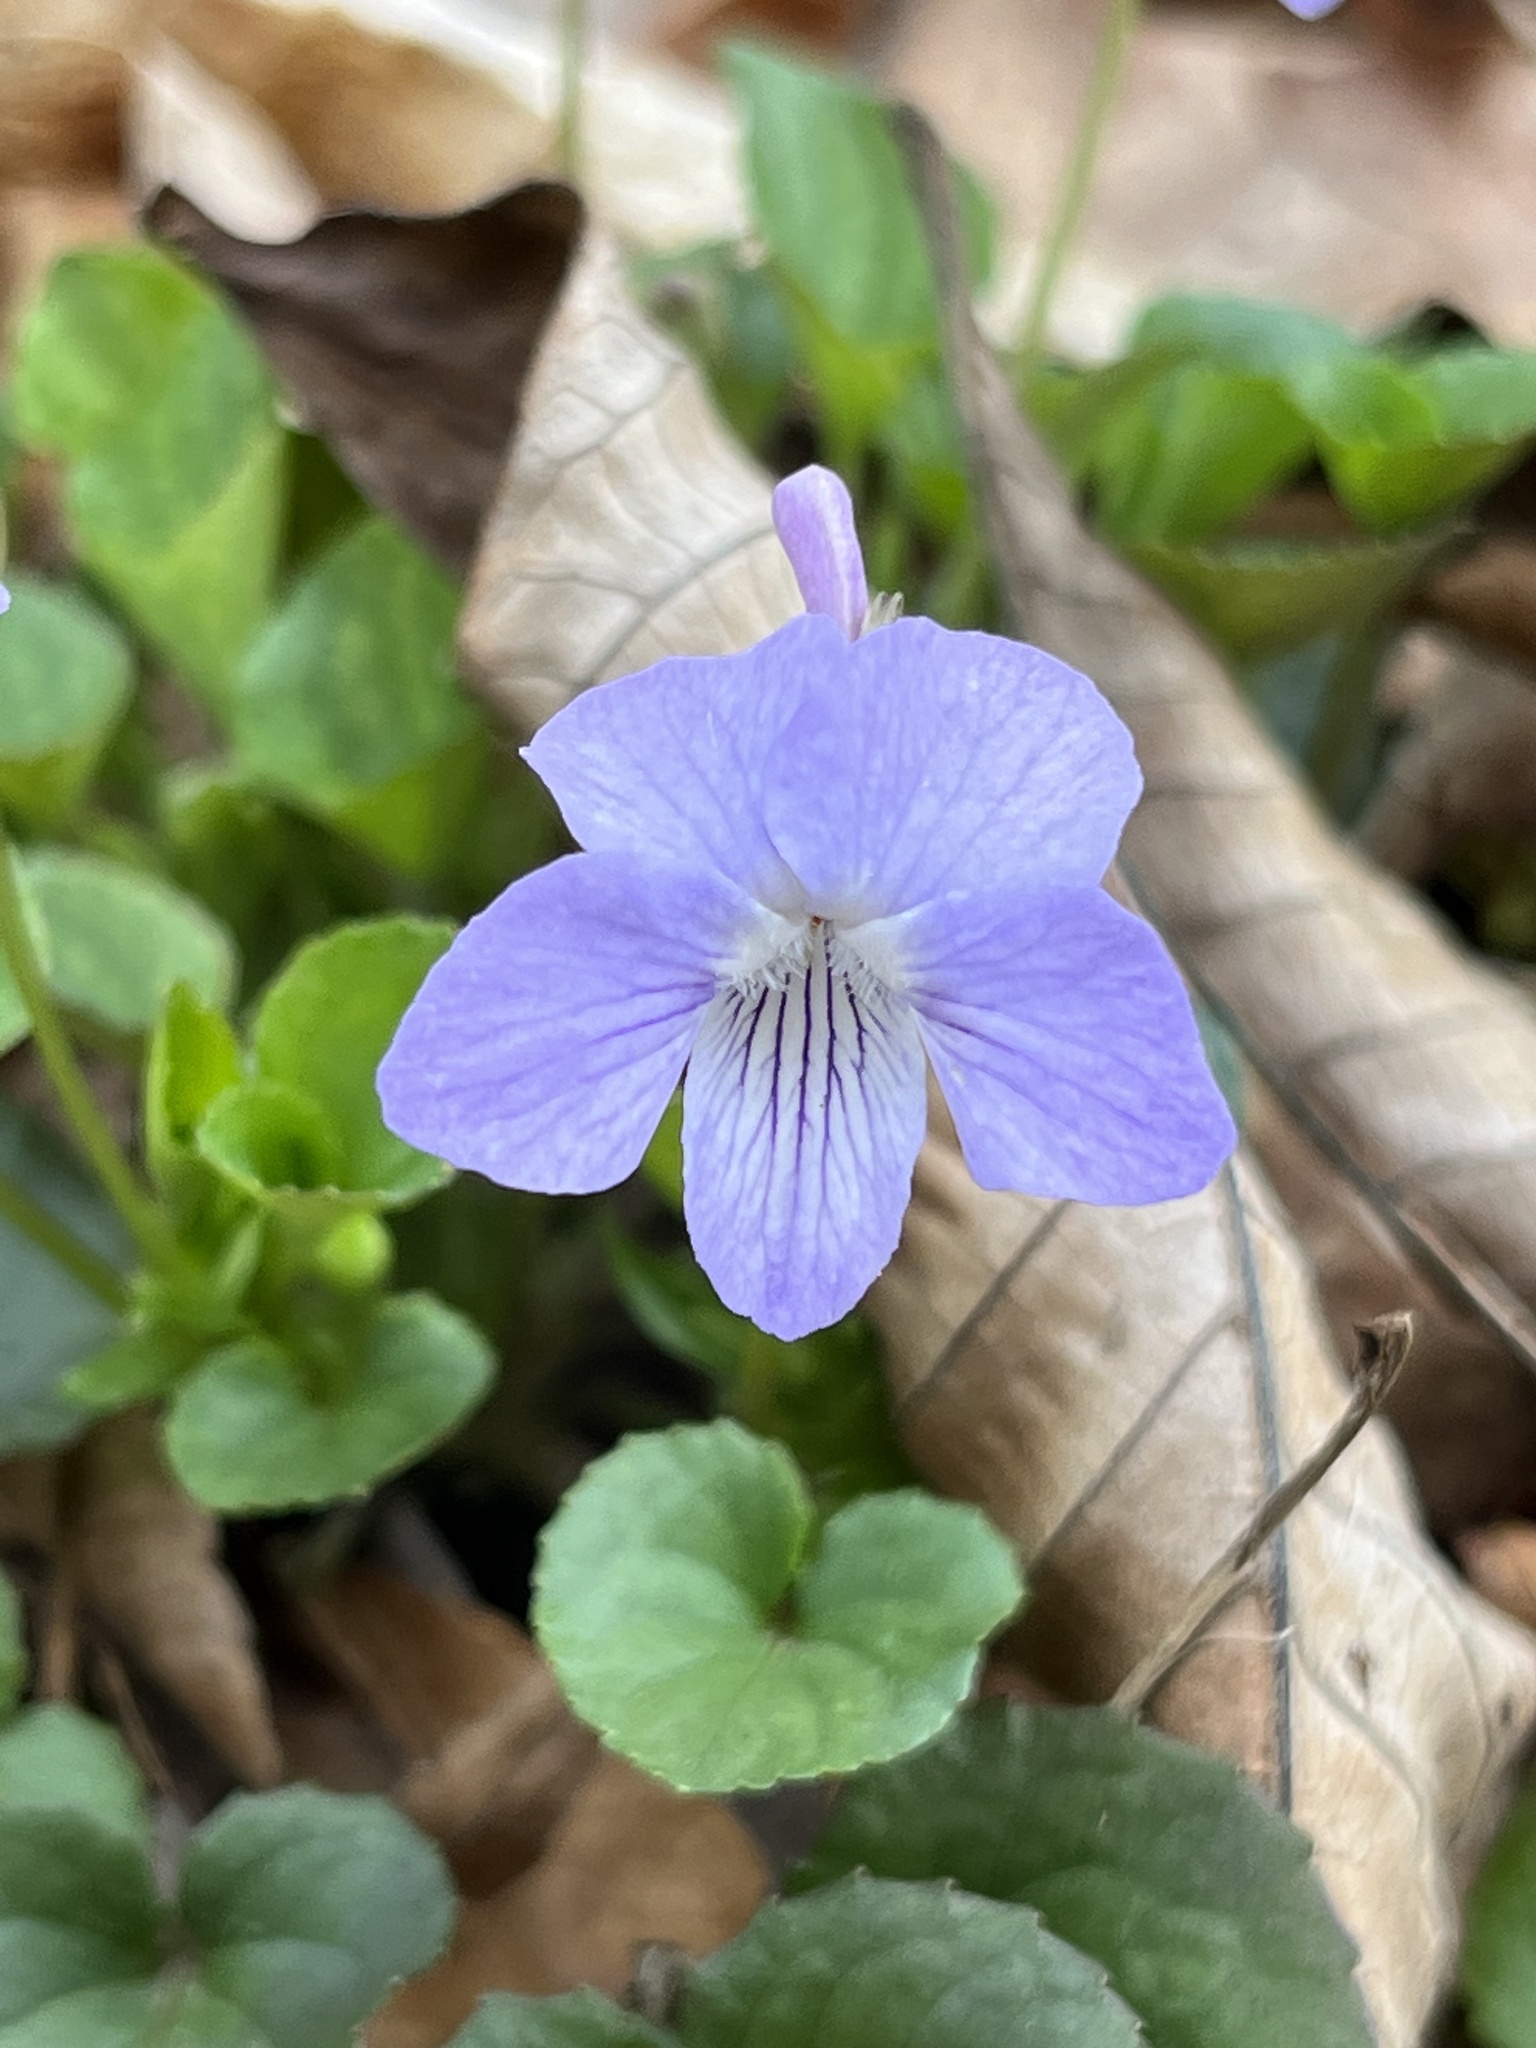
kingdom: Plantae
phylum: Tracheophyta
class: Magnoliopsida
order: Malpighiales
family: Violaceae
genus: Viola
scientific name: Viola rostrata
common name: Long-spur violet
